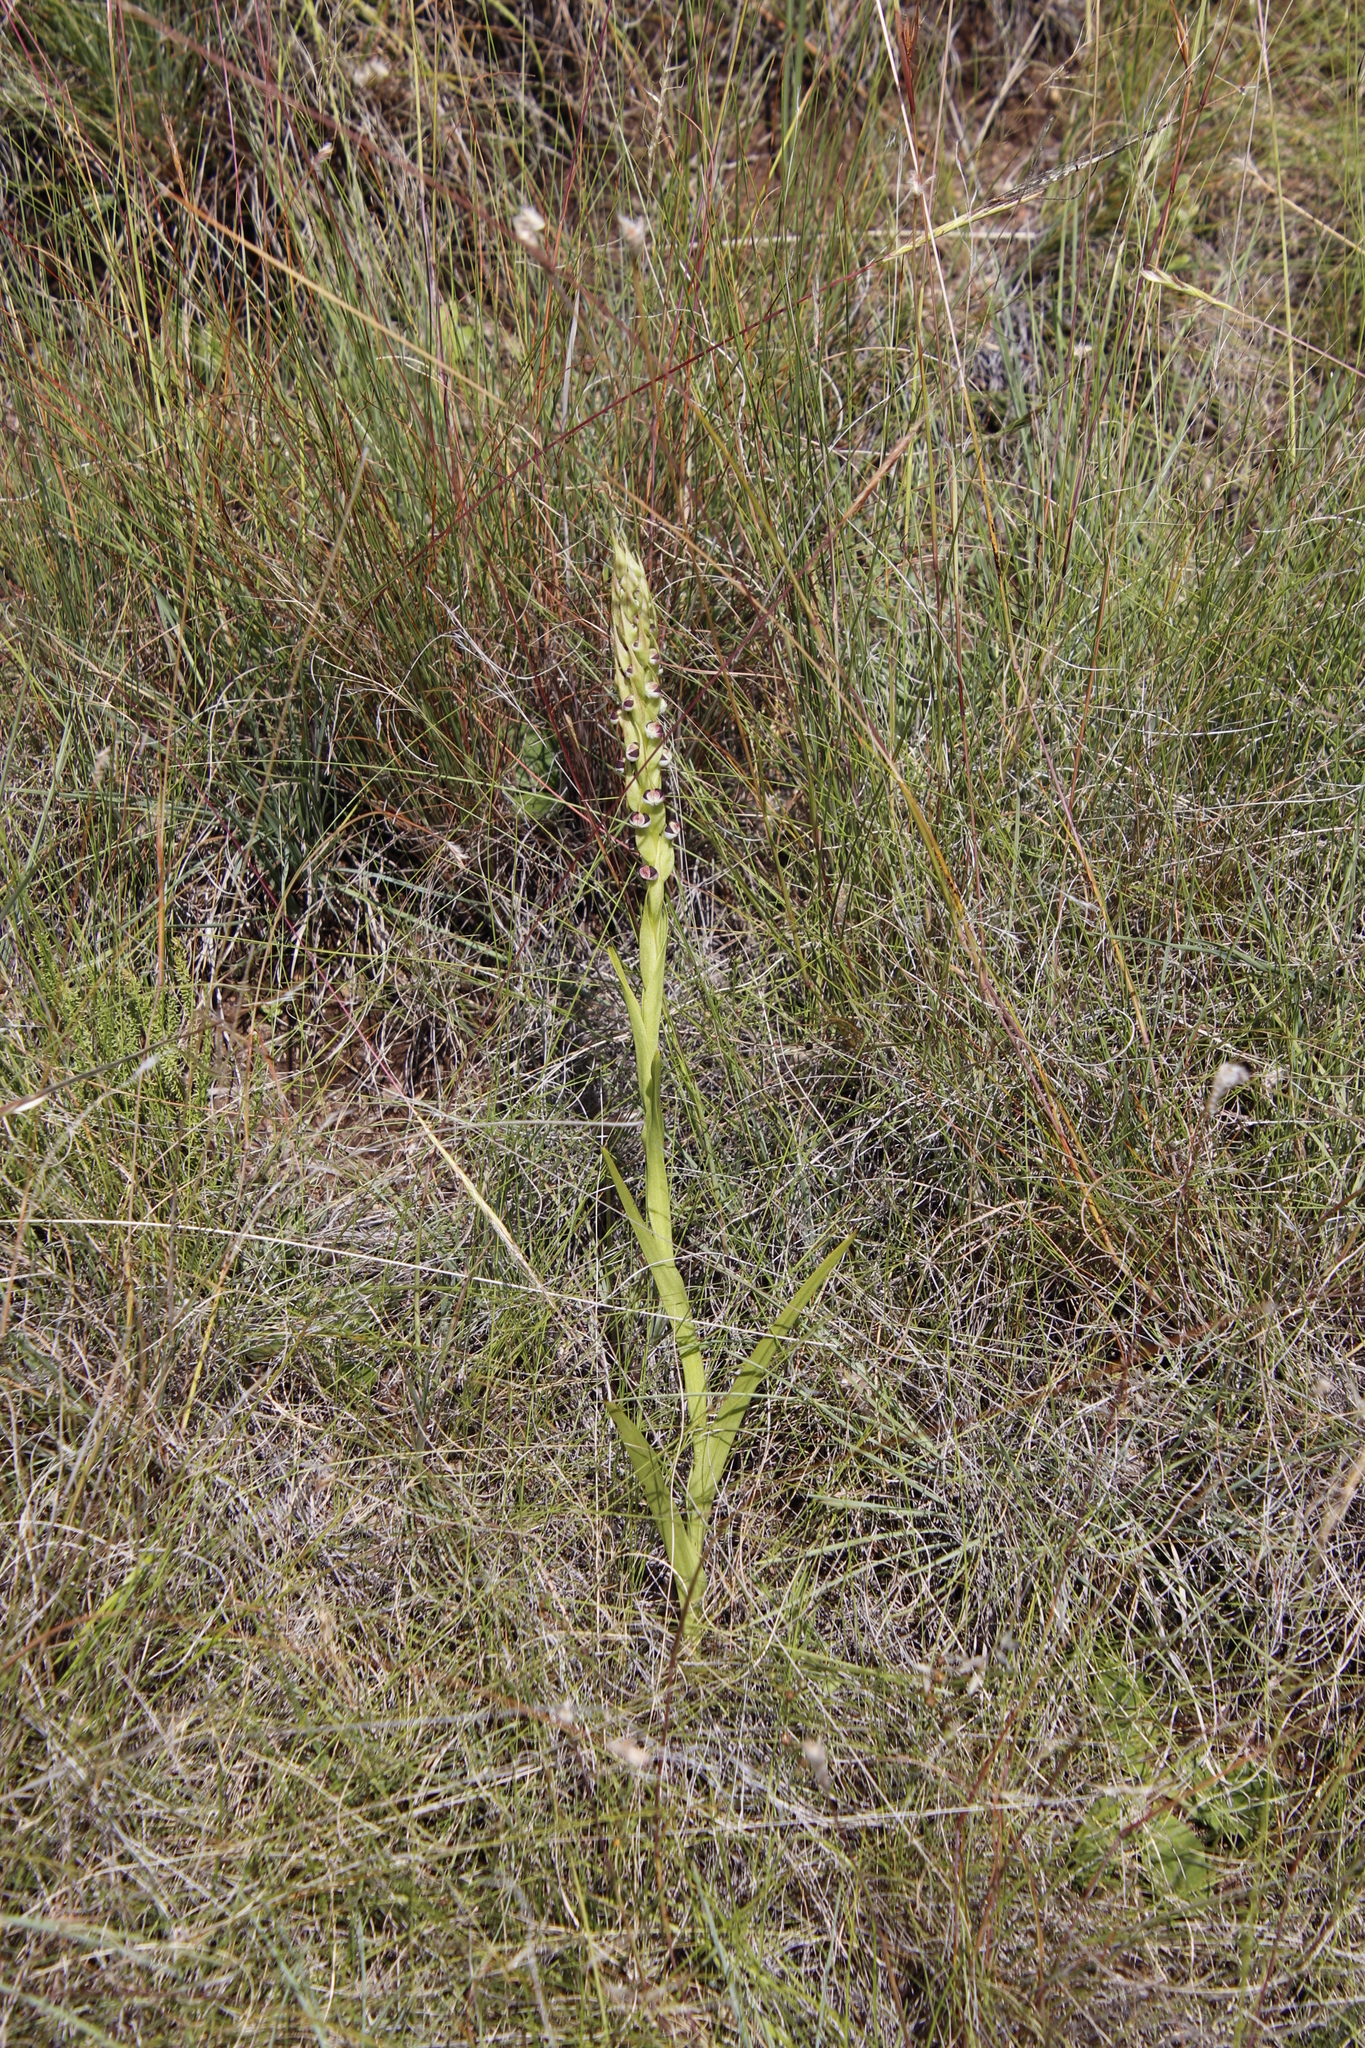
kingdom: Plantae
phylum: Tracheophyta
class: Liliopsida
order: Asparagales
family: Orchidaceae
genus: Corycium
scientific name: Corycium dracomontanum
